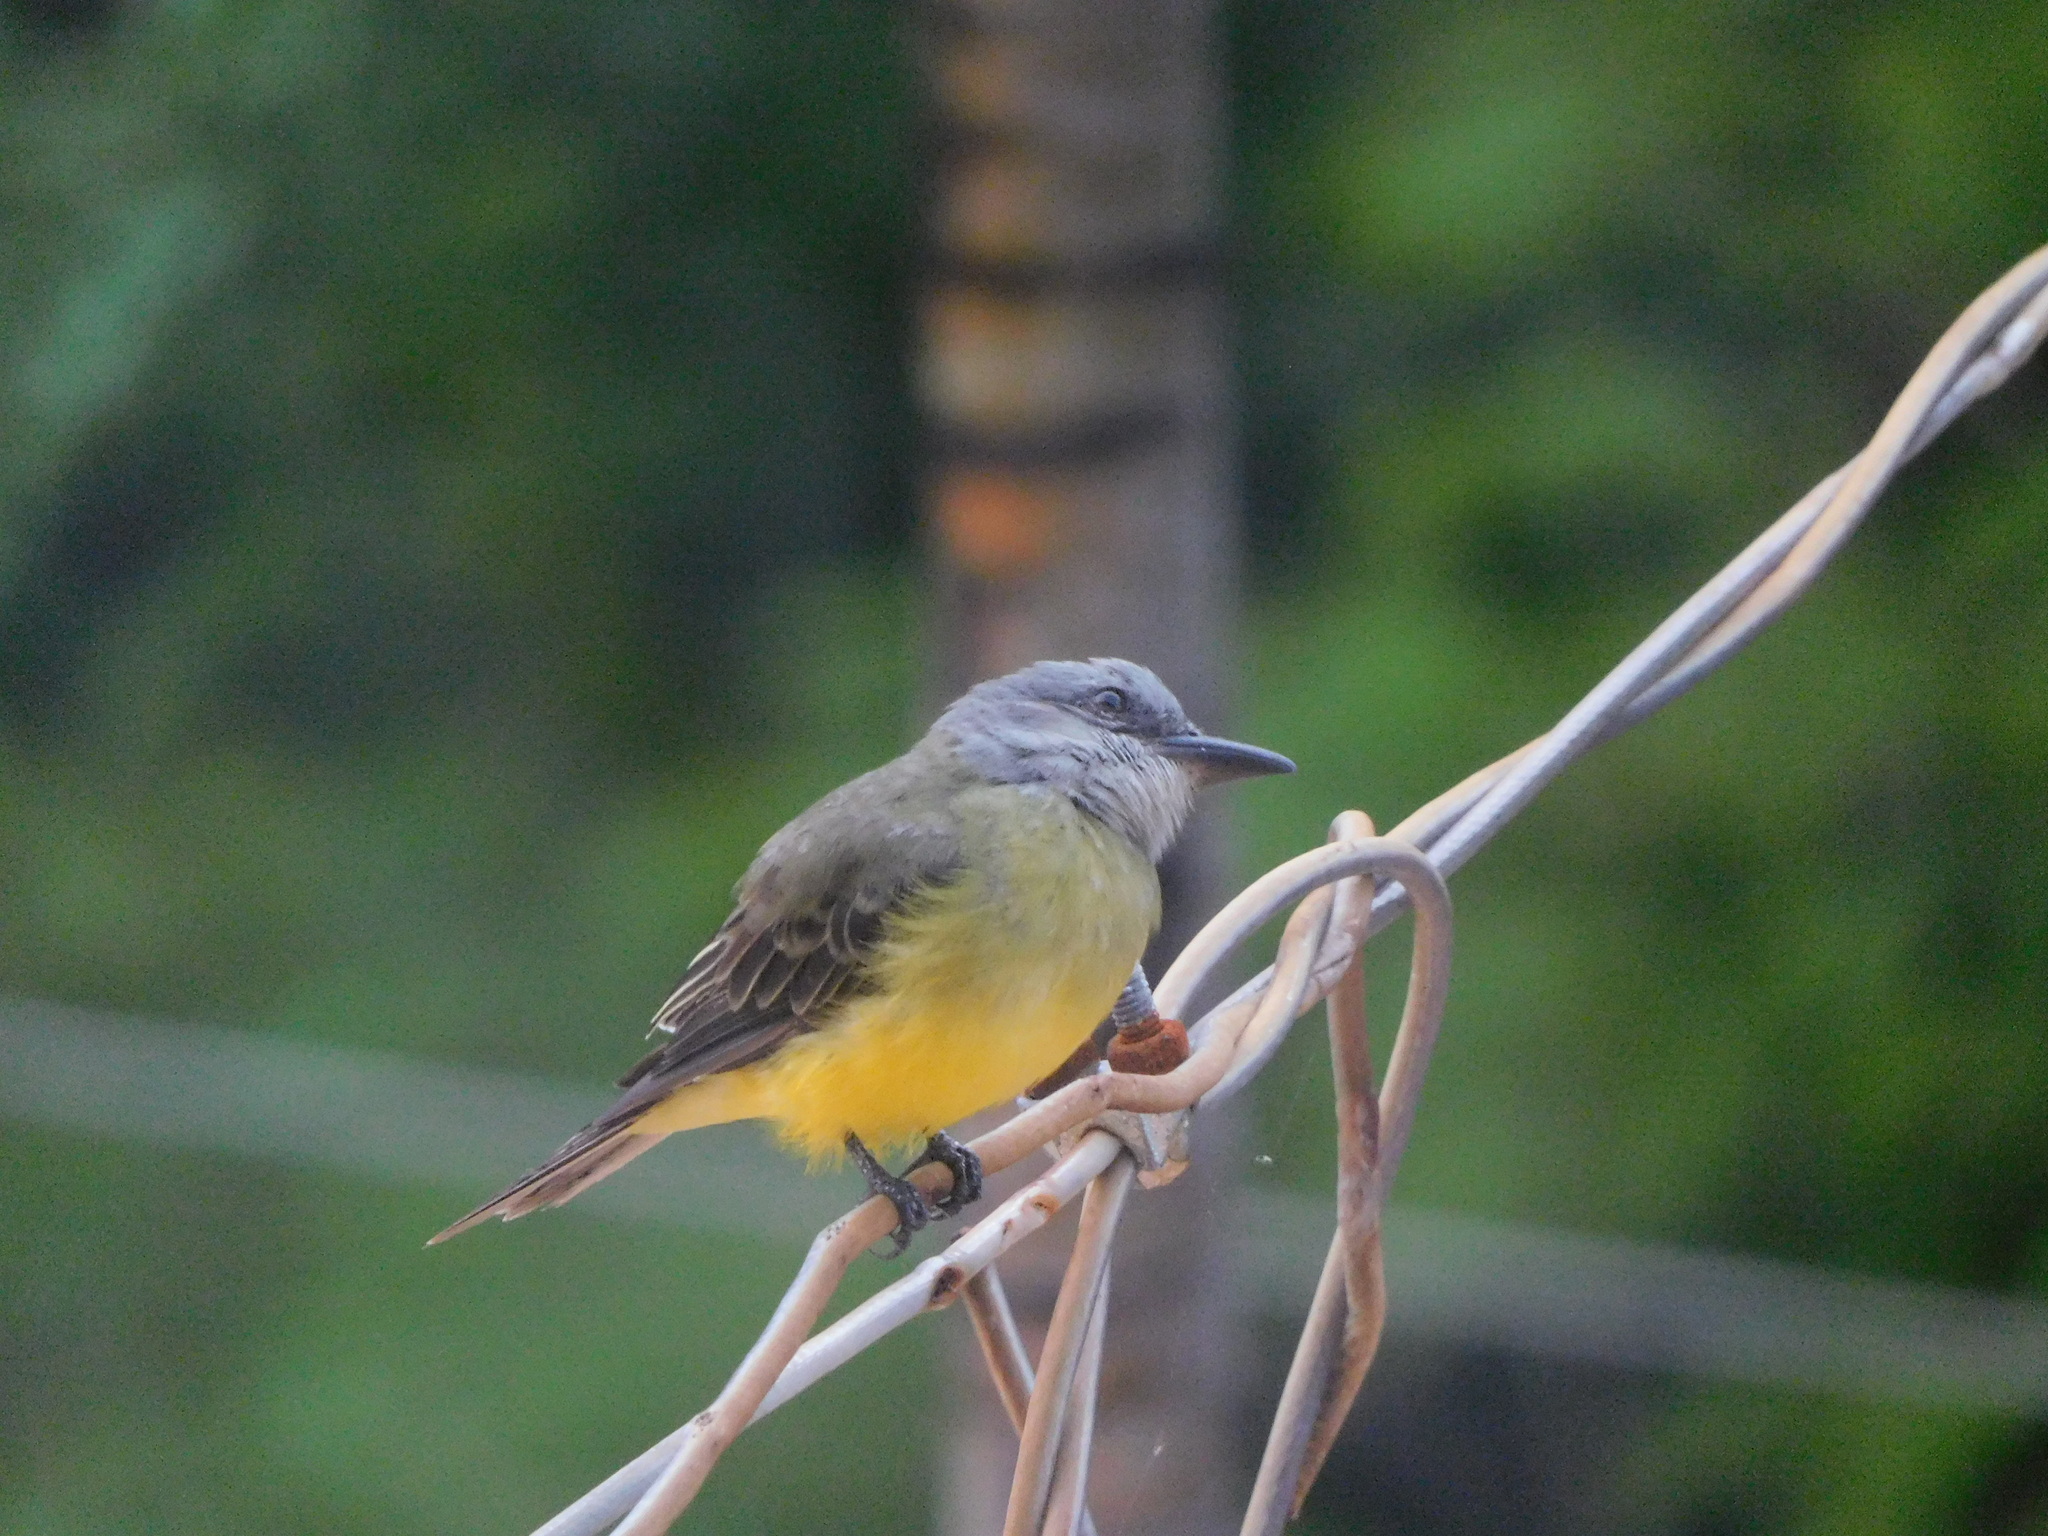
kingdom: Animalia
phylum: Chordata
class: Aves
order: Passeriformes
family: Tyrannidae
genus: Tyrannus
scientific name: Tyrannus melancholicus
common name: Tropical kingbird
